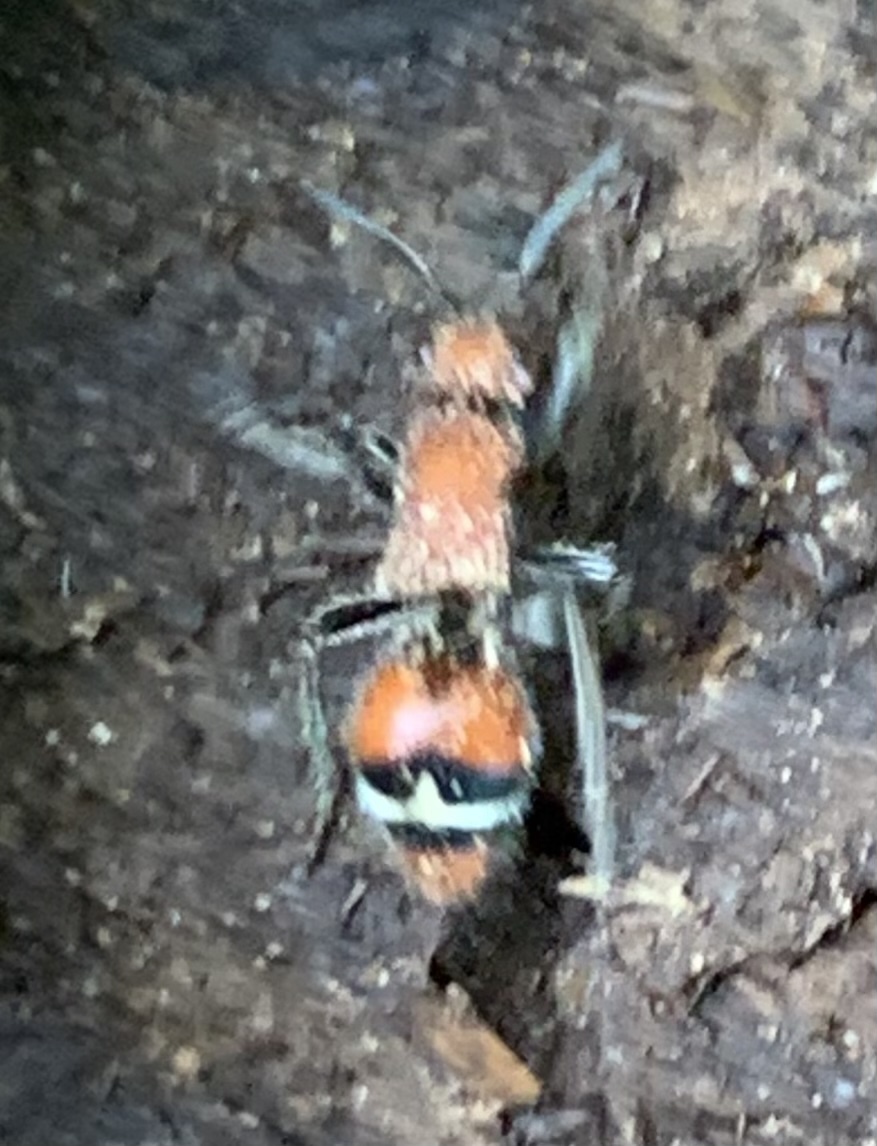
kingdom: Animalia
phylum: Arthropoda
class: Insecta
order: Hymenoptera
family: Mutillidae
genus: Timulla
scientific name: Timulla
